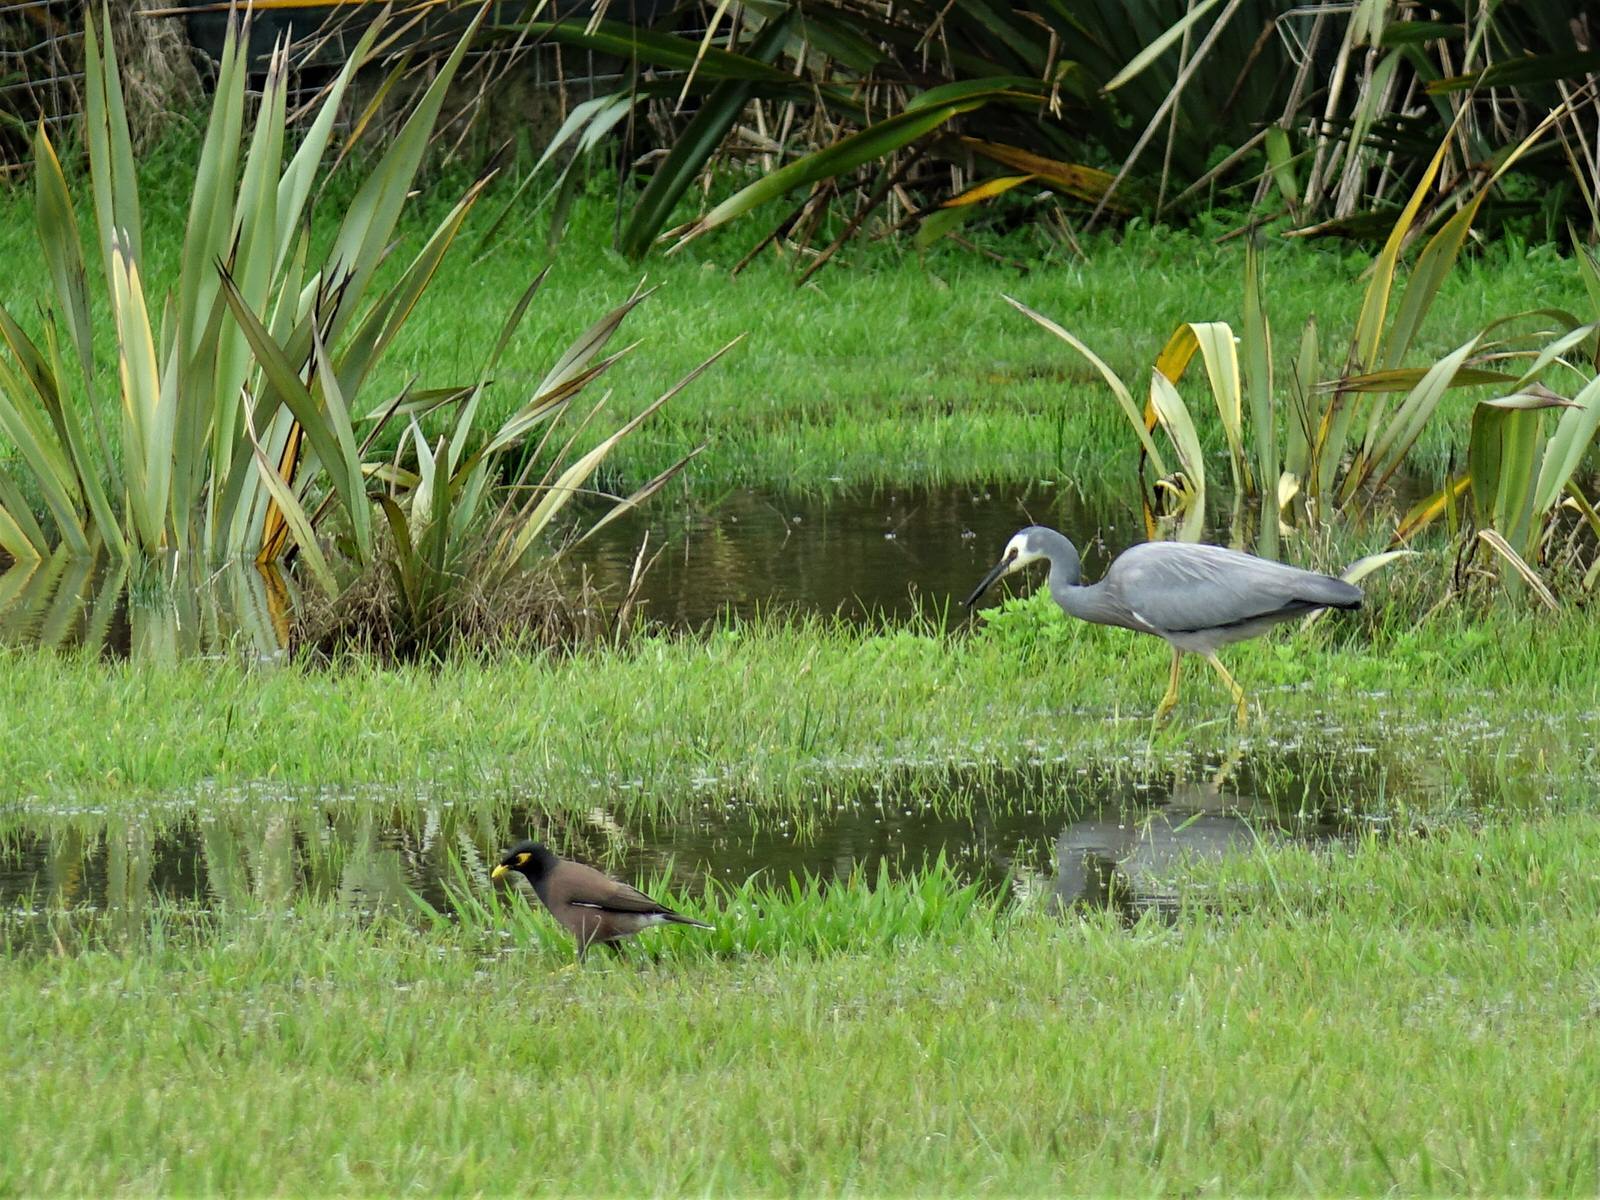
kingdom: Animalia
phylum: Chordata
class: Aves
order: Passeriformes
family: Sturnidae
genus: Acridotheres
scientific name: Acridotheres tristis
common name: Common myna
